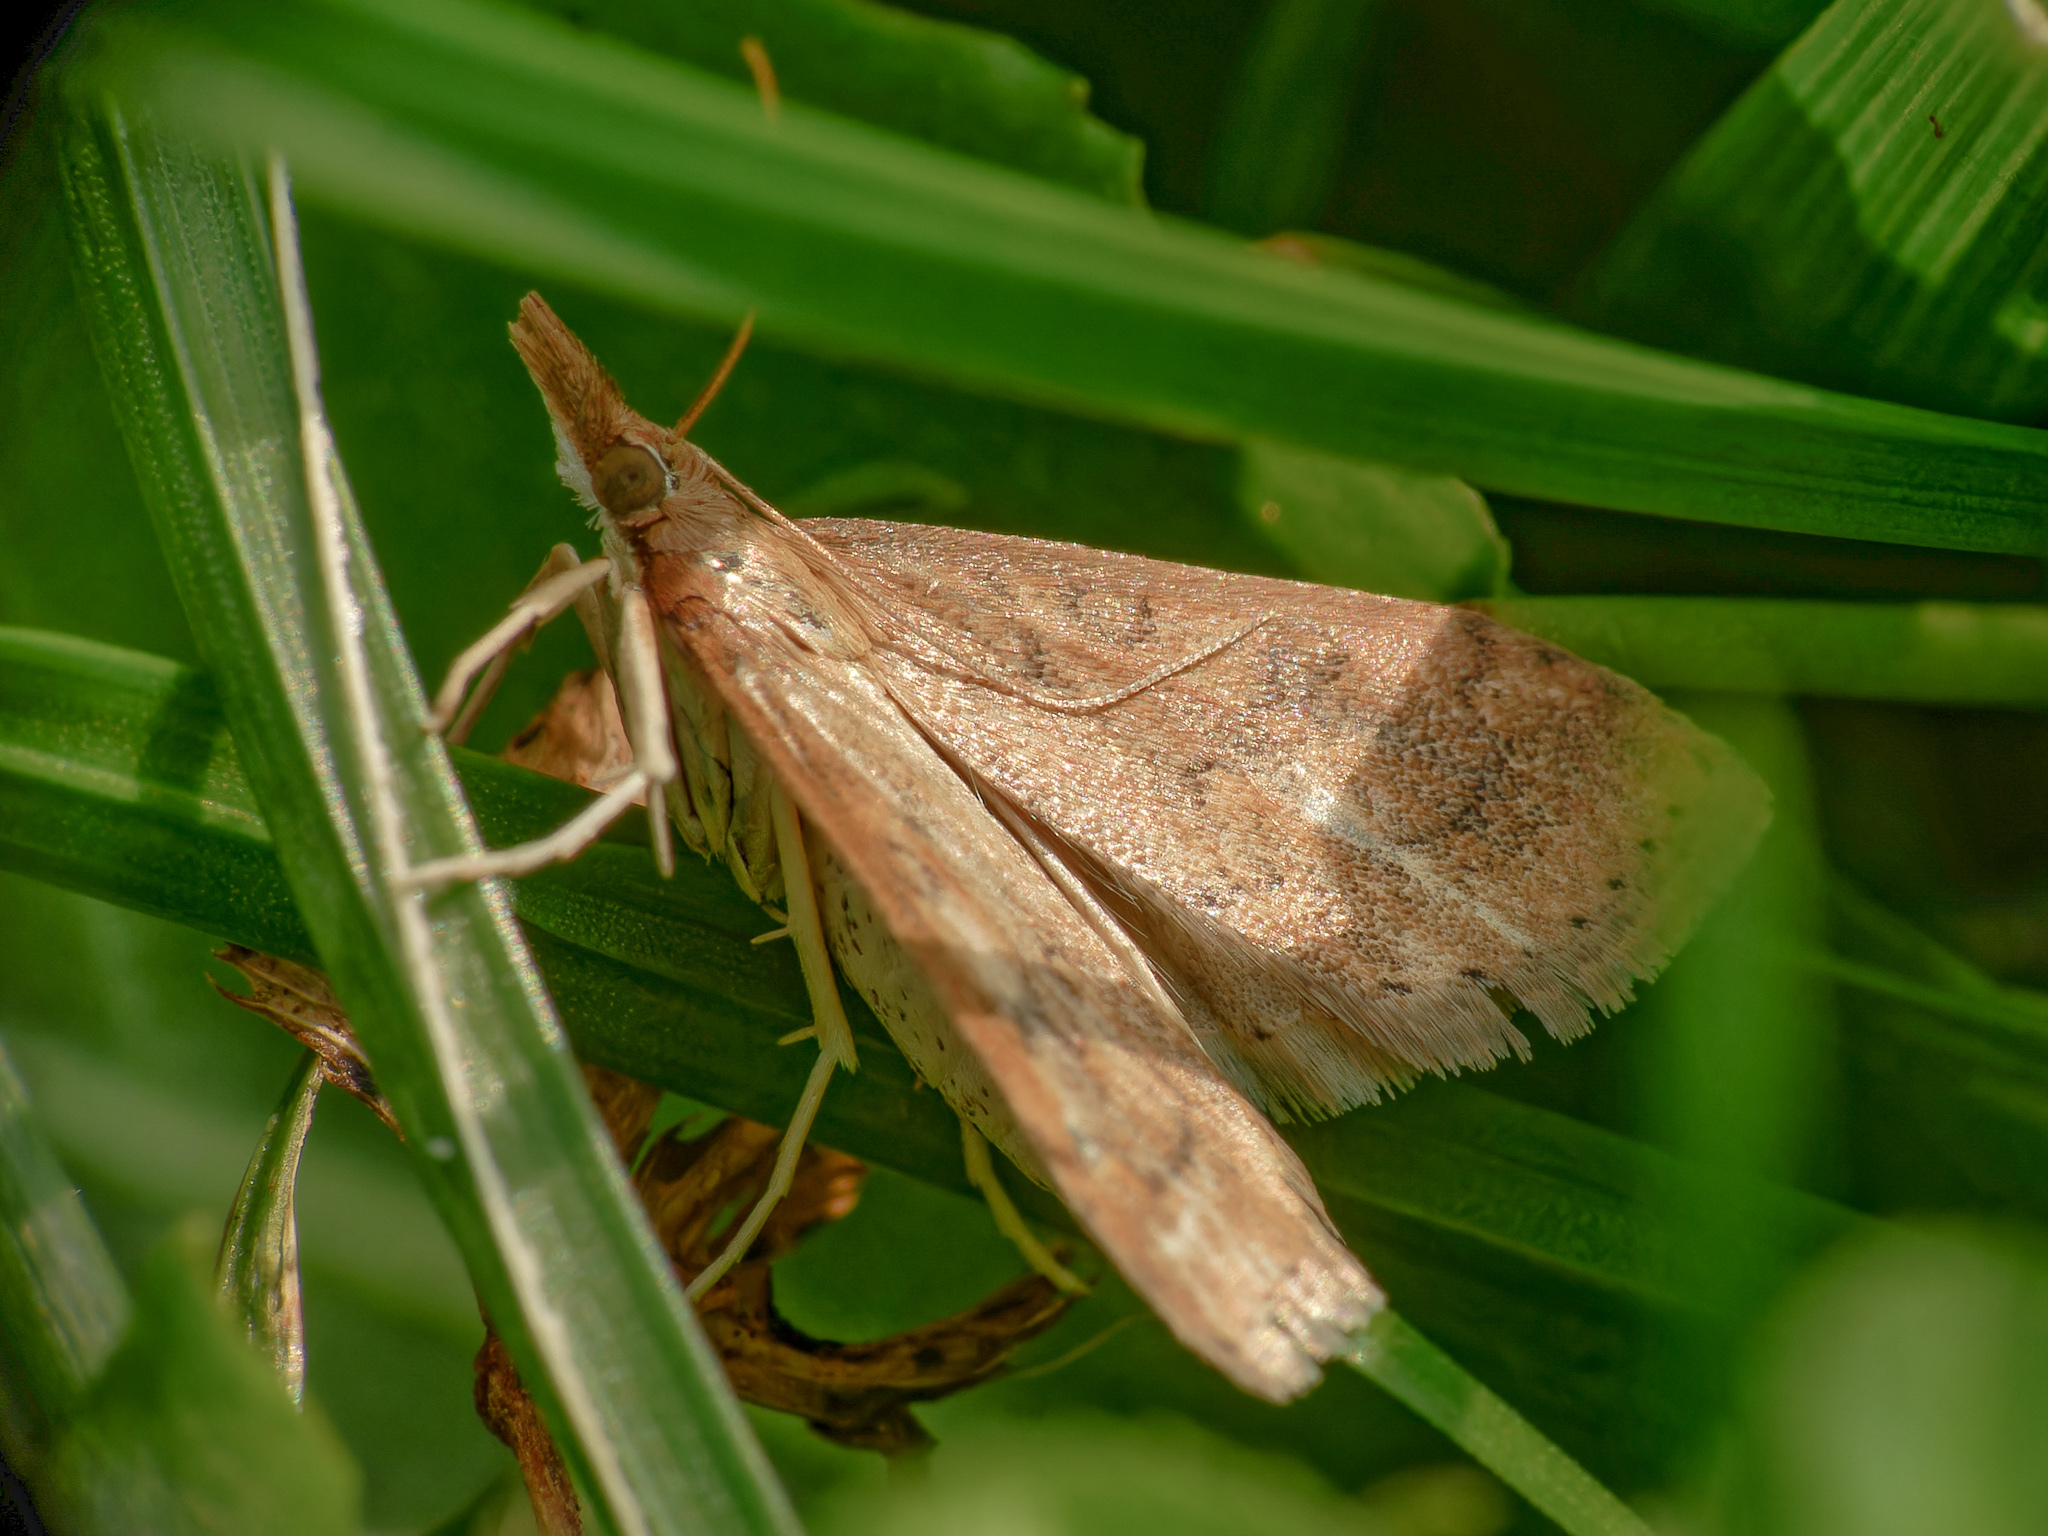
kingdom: Animalia
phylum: Arthropoda
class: Insecta
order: Lepidoptera
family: Crambidae
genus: Udea
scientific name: Udea rubigalis
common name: Celery leaftier moth
